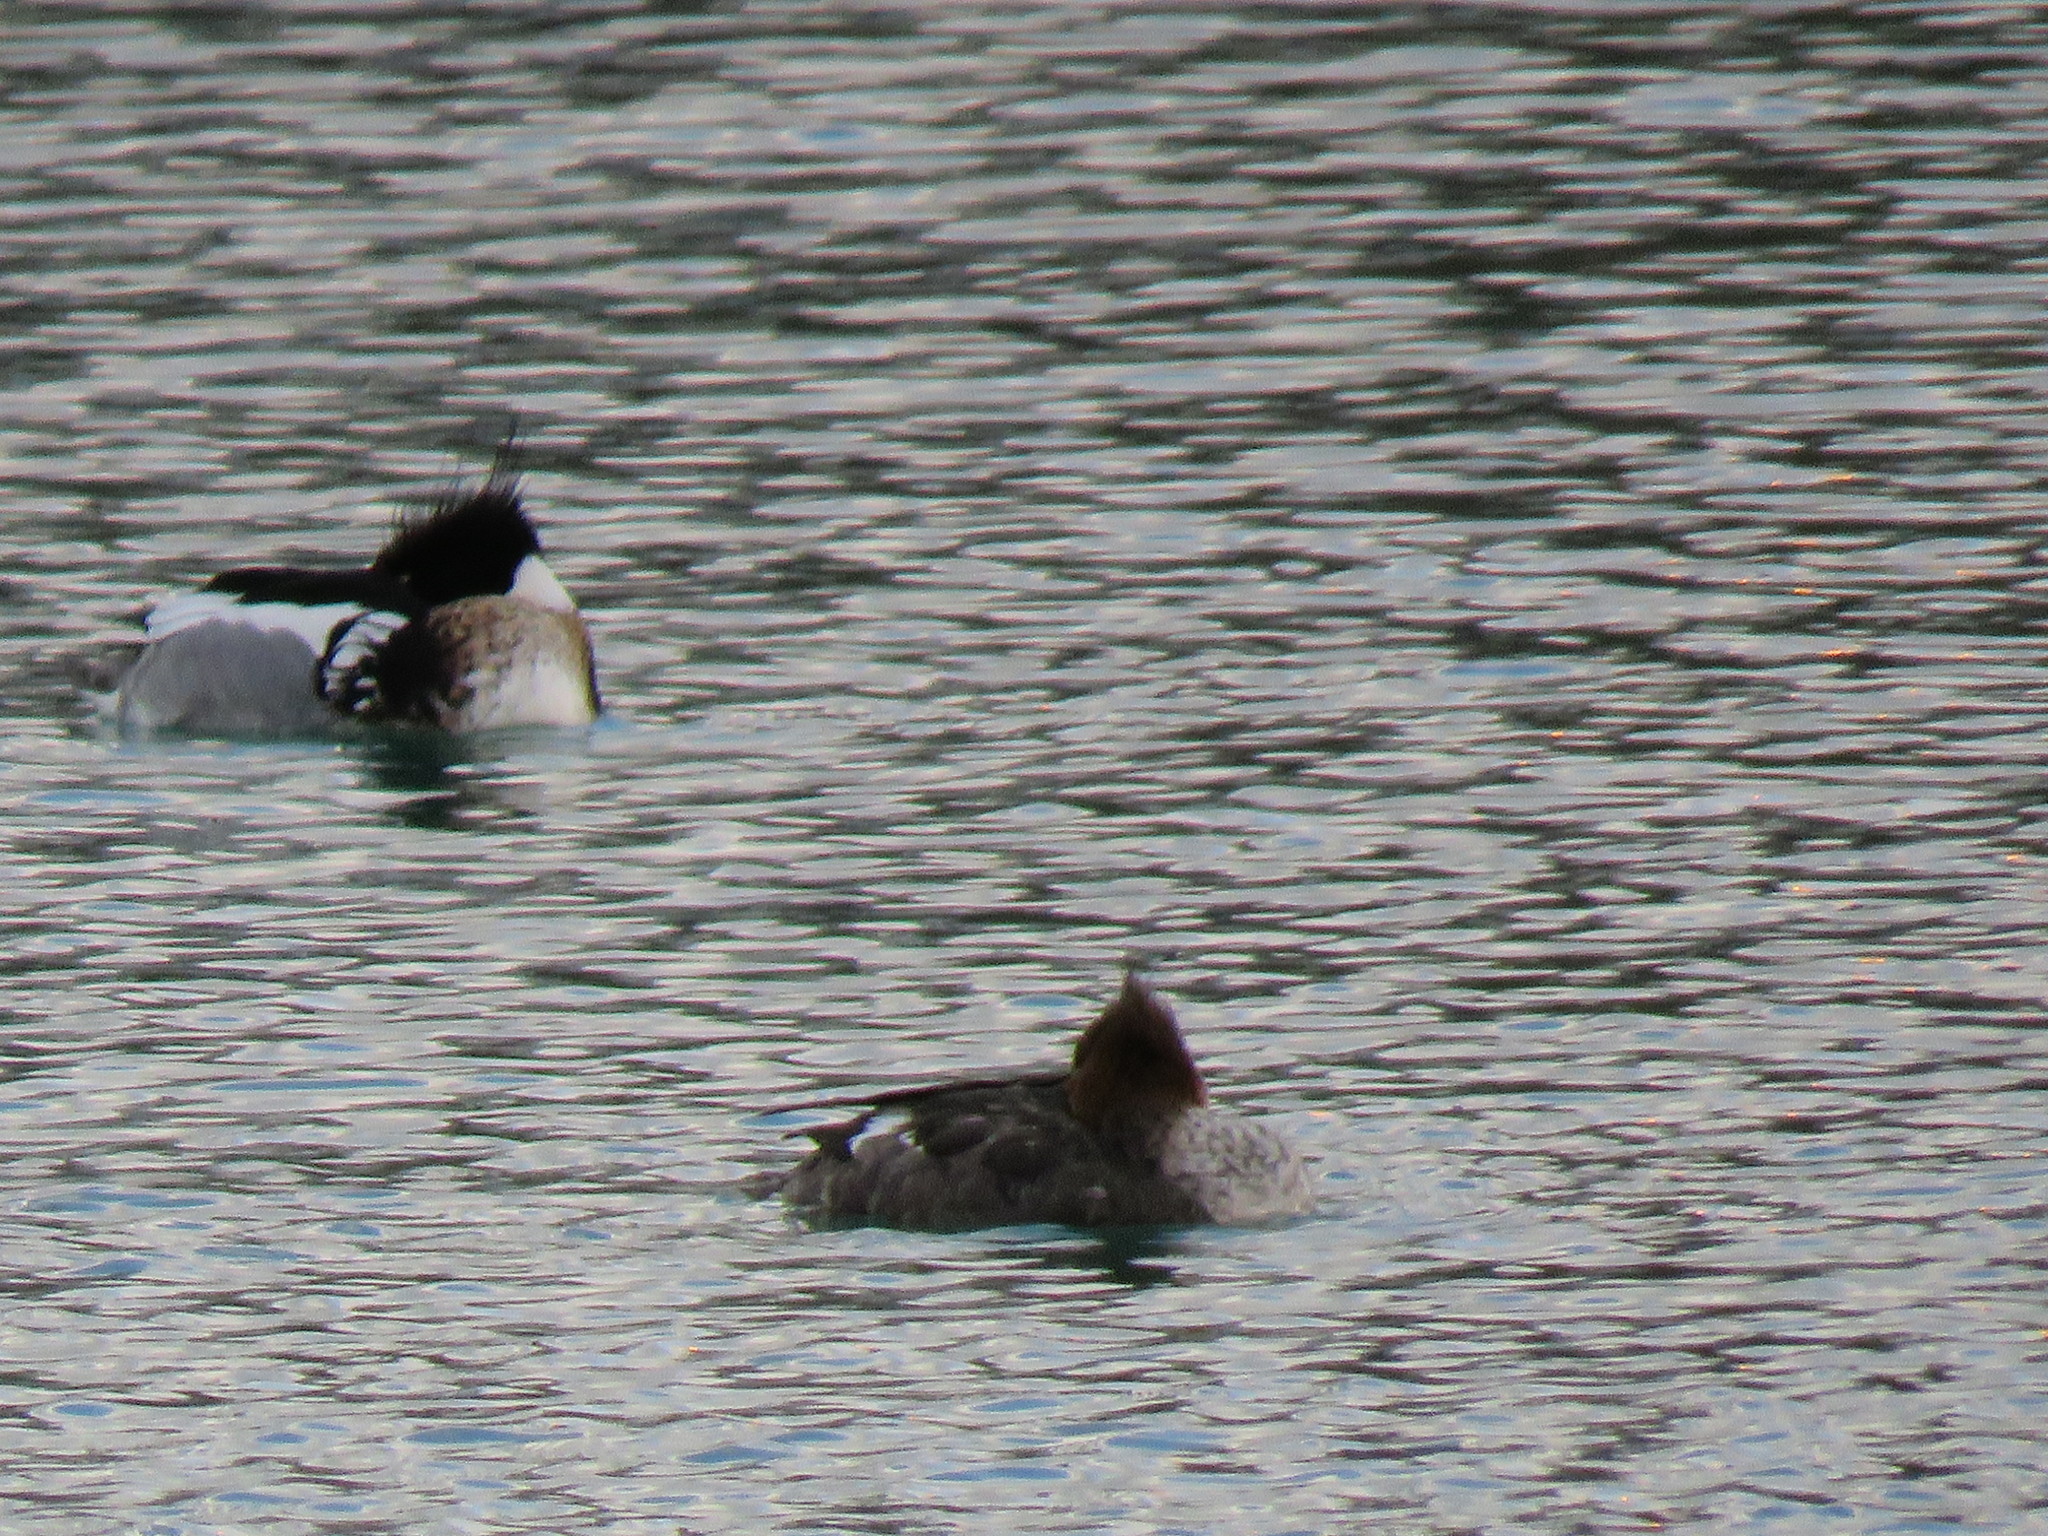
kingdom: Animalia
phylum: Chordata
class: Aves
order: Anseriformes
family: Anatidae
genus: Mergus
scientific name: Mergus serrator
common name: Red-breasted merganser
